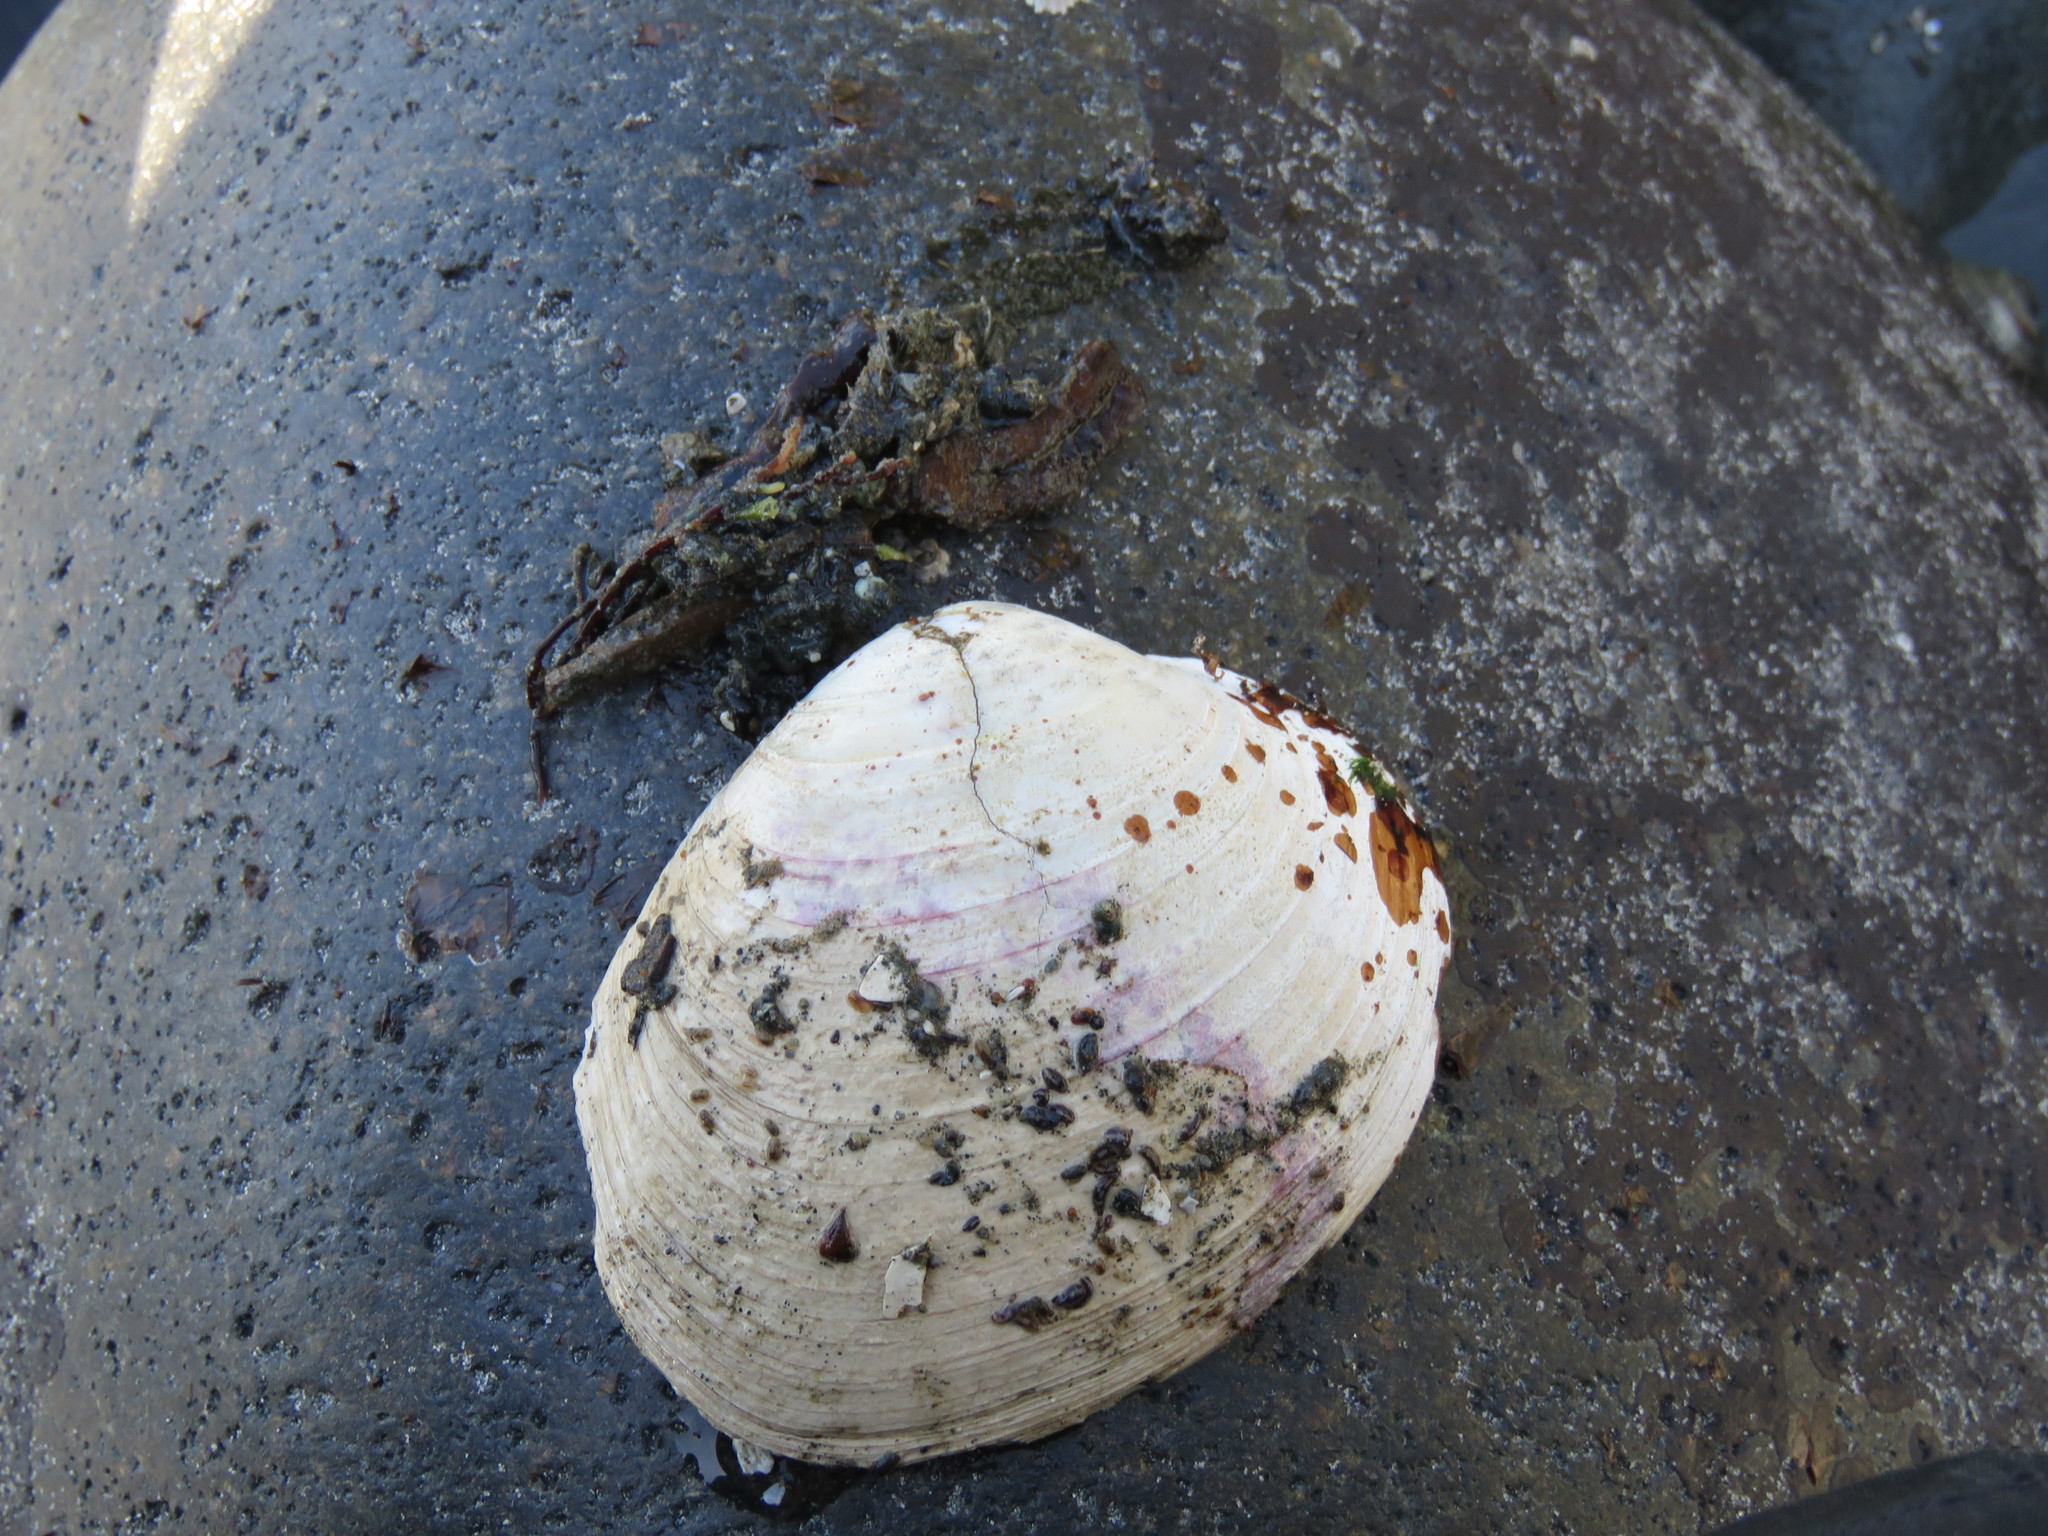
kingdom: Animalia
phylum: Mollusca
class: Bivalvia
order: Venerida
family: Veneridae
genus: Saxidomus
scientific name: Saxidomus gigantea
